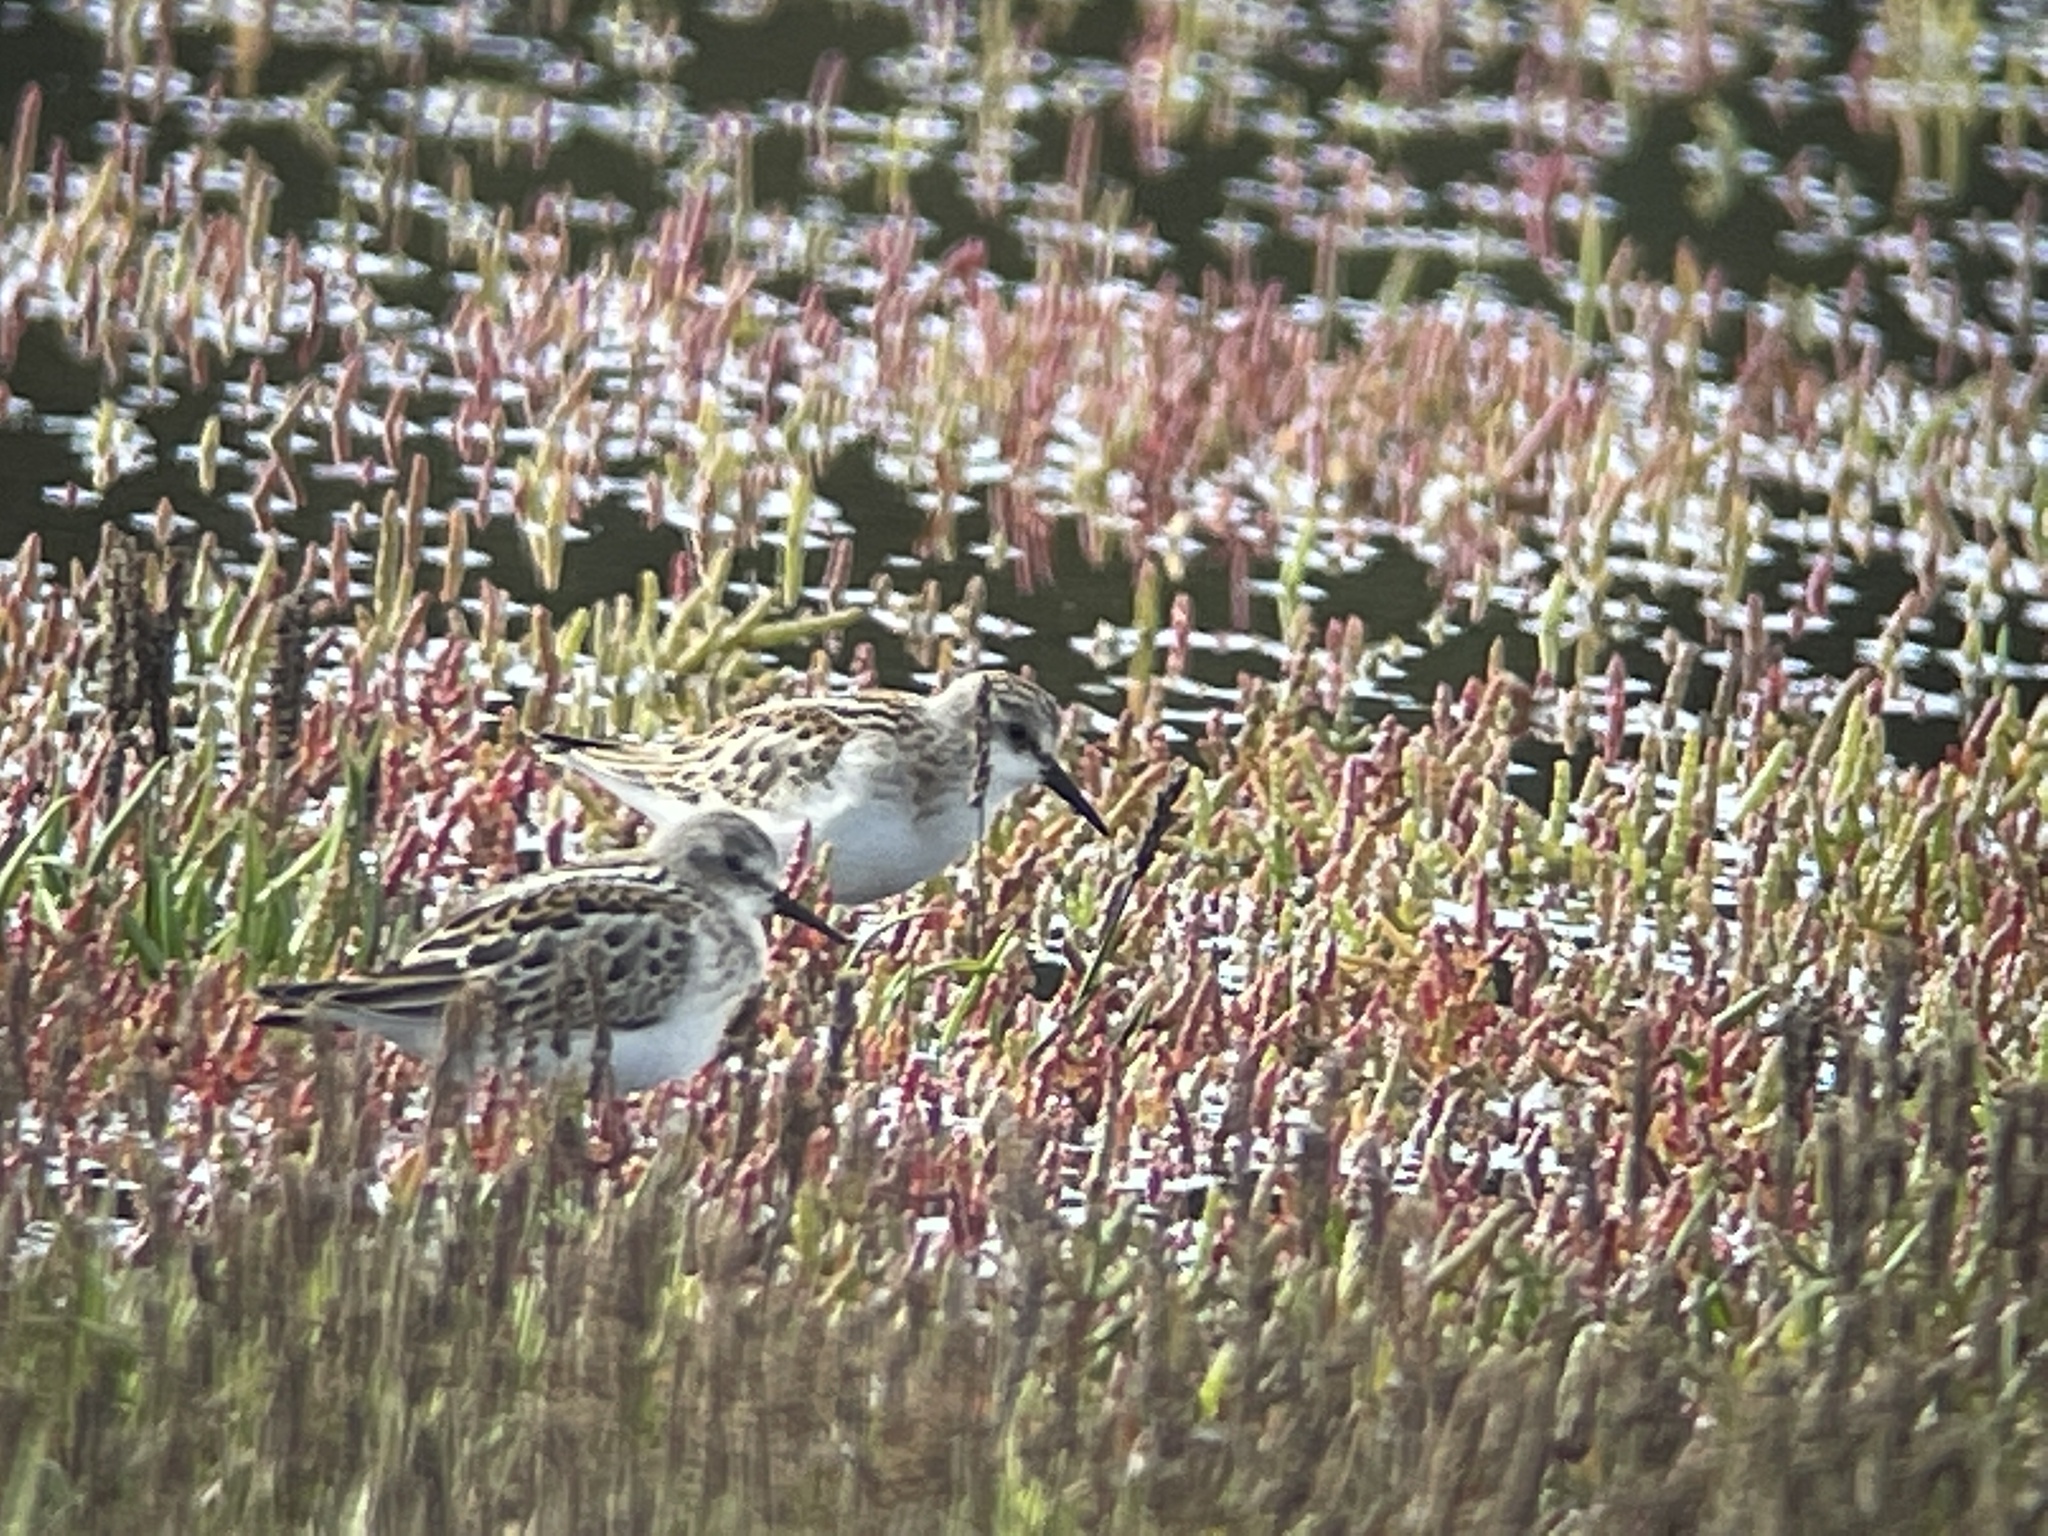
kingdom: Animalia
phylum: Chordata
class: Aves
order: Charadriiformes
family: Scolopacidae
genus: Calidris
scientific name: Calidris minuta
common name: Little stint
